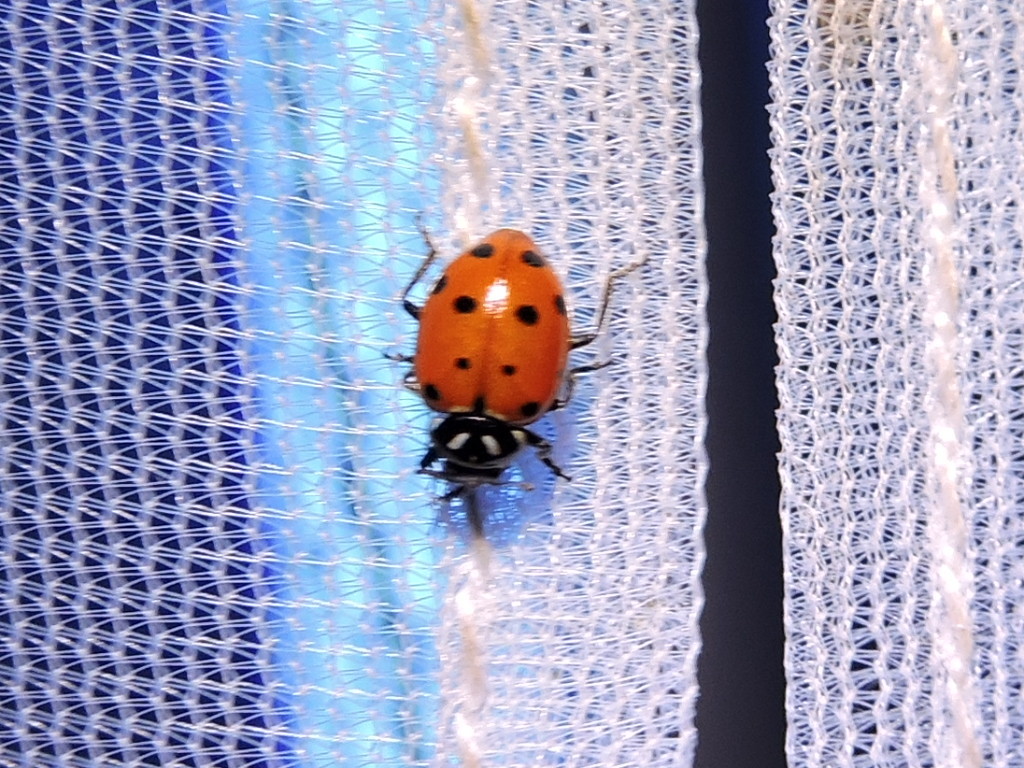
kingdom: Animalia
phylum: Arthropoda
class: Insecta
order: Coleoptera
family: Coccinellidae
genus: Hippodamia
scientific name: Hippodamia convergens
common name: Convergent lady beetle
